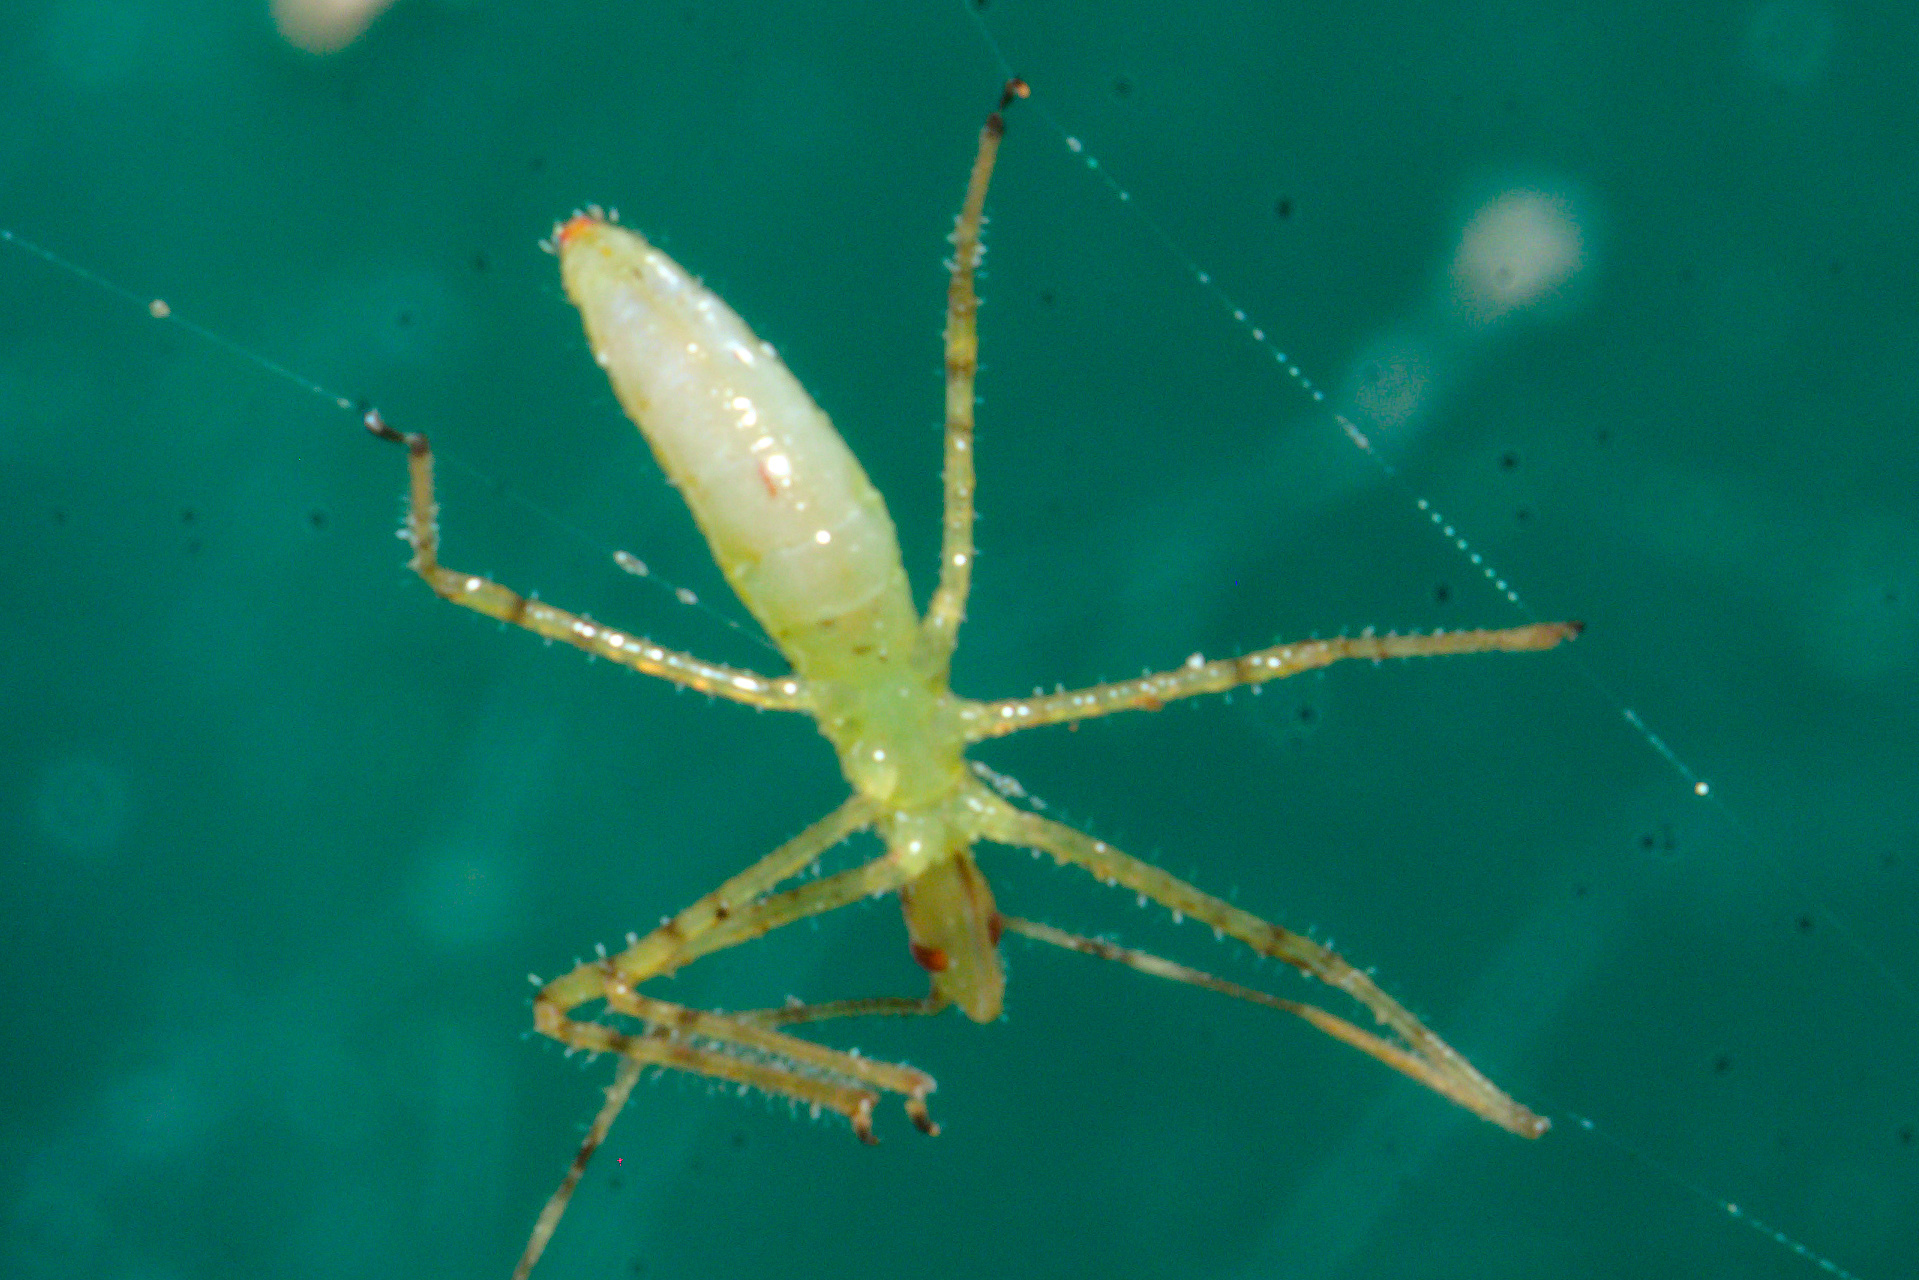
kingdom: Animalia
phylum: Arthropoda
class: Insecta
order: Hemiptera
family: Reduviidae
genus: Zelus
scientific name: Zelus luridus
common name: Pale green assassin bug
